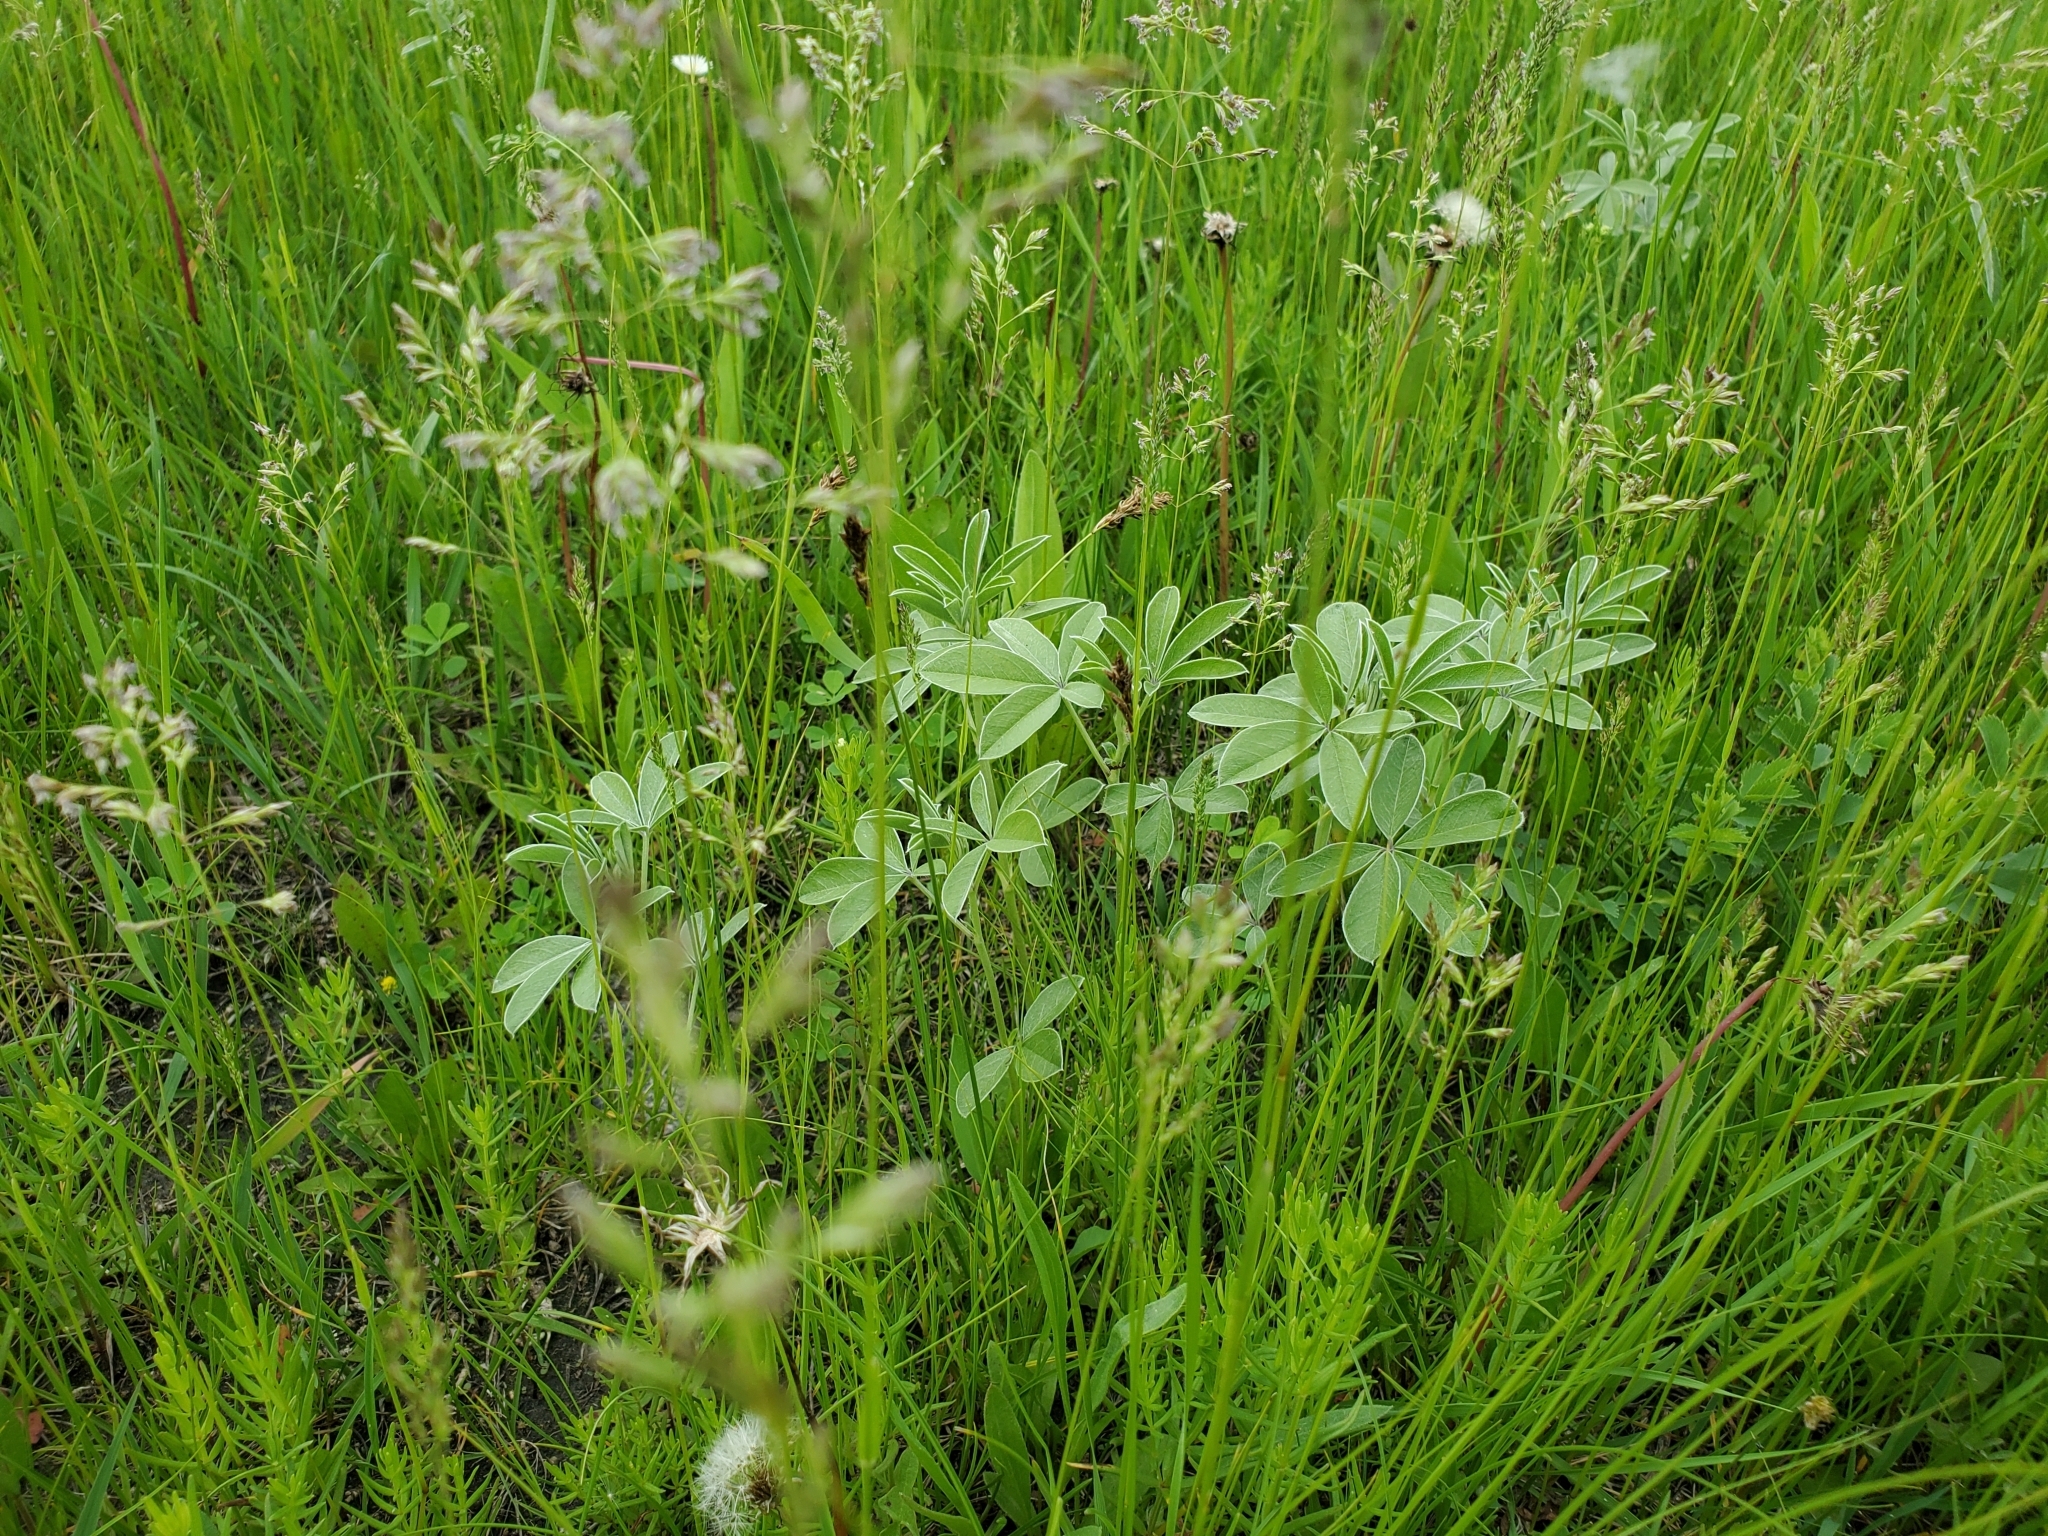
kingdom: Plantae
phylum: Tracheophyta
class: Magnoliopsida
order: Fabales
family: Fabaceae
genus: Pediomelum
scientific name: Pediomelum esculentum
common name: Indian-turnip
